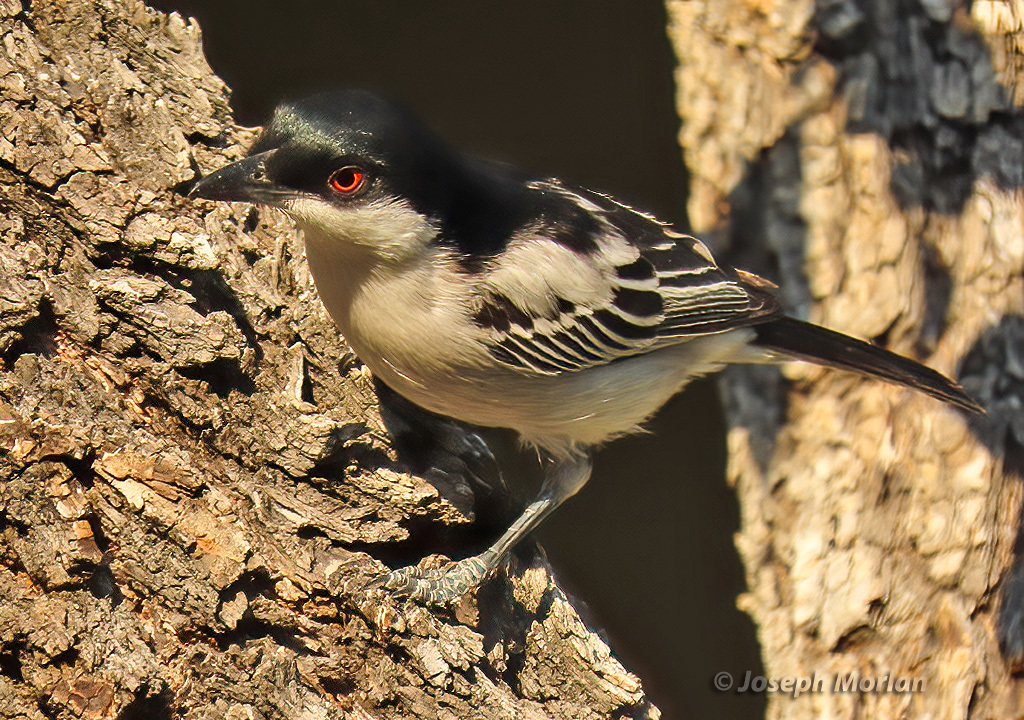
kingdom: Animalia
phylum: Chordata
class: Aves
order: Passeriformes
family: Malaconotidae
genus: Dryoscopus
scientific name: Dryoscopus cubla
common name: Black-backed puffback
